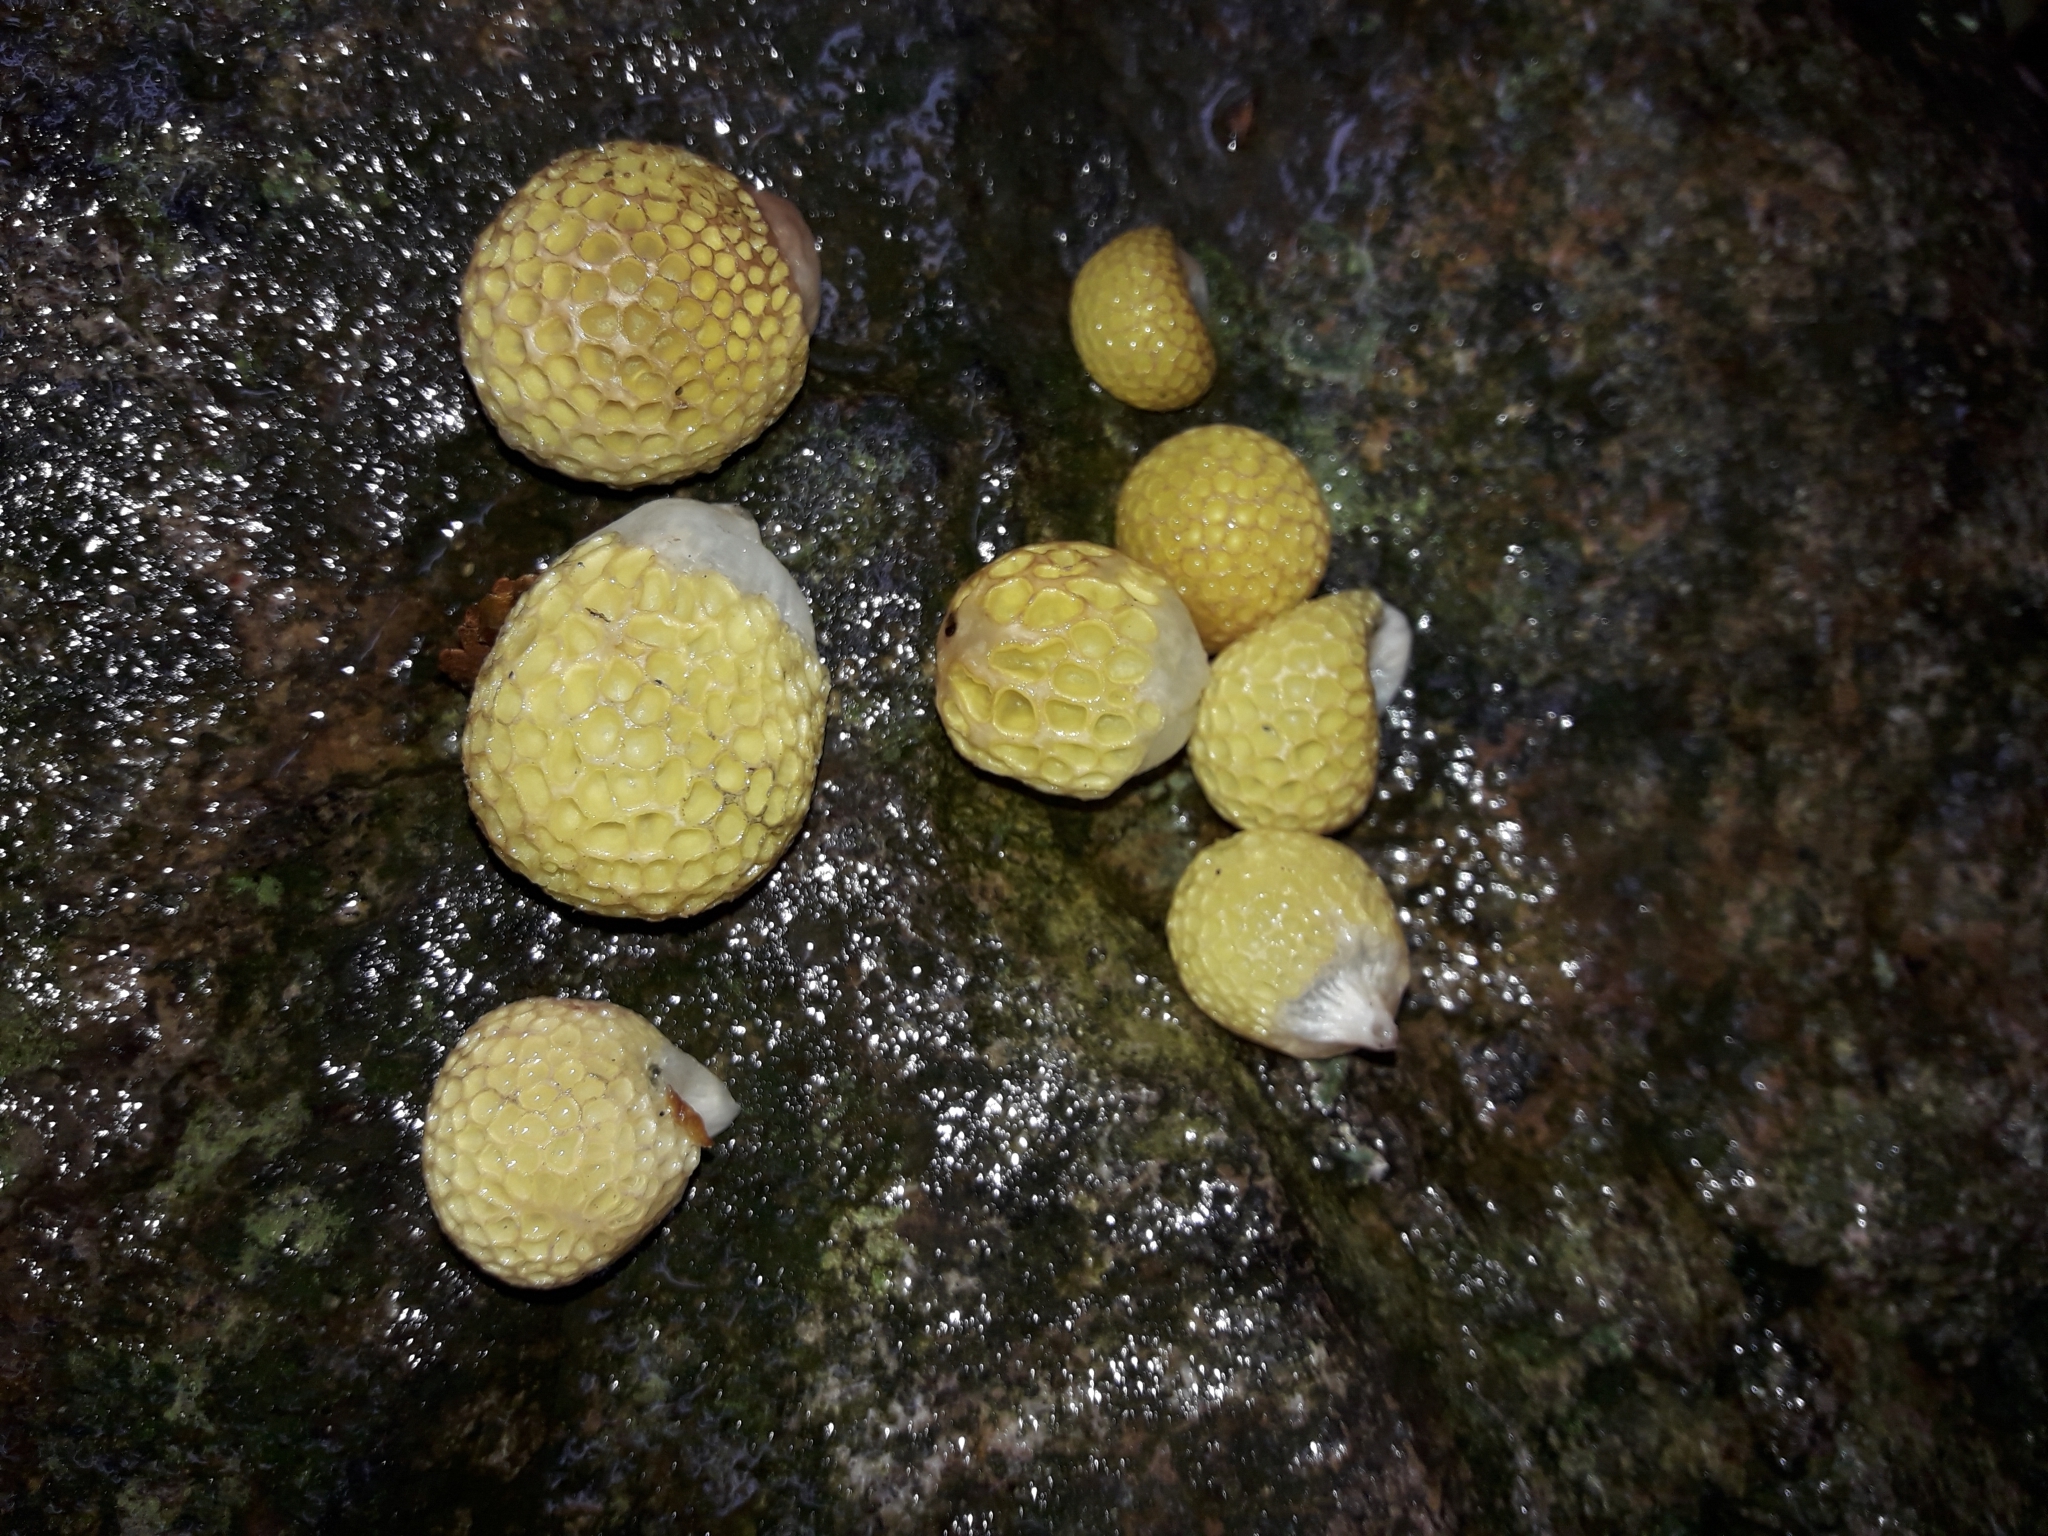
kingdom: Fungi
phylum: Ascomycota
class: Leotiomycetes
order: Cyttariales
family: Cyttariaceae
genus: Cyttaria
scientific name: Cyttaria gunnii
